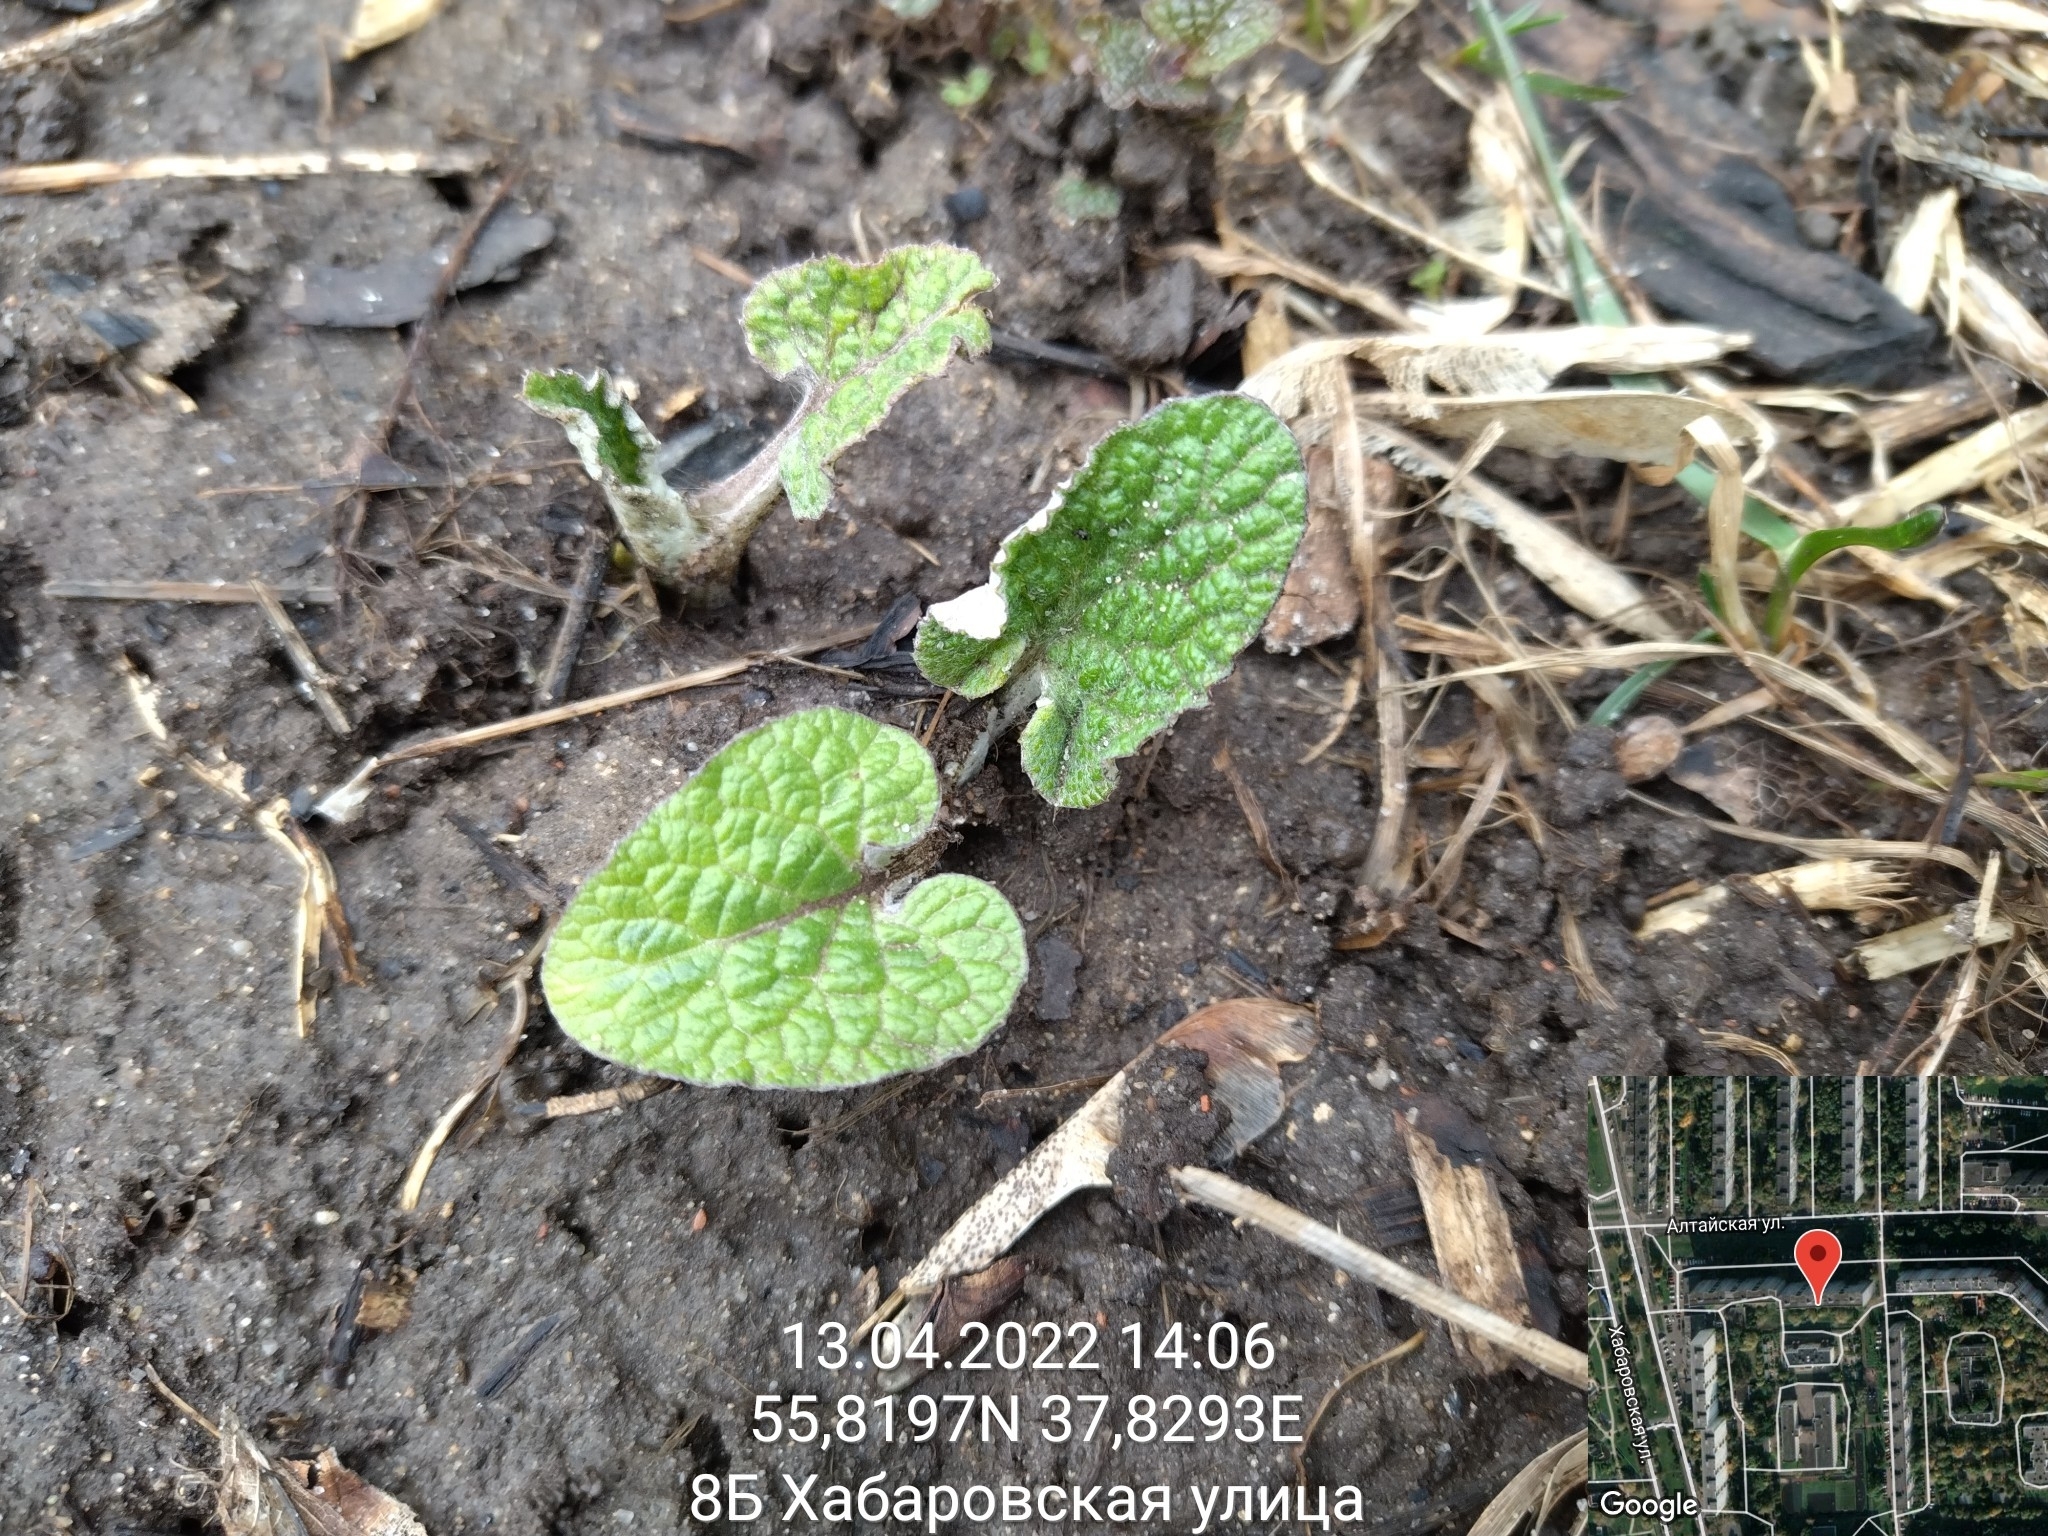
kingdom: Plantae
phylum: Tracheophyta
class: Magnoliopsida
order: Asterales
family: Asteraceae
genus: Arctium
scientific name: Arctium
